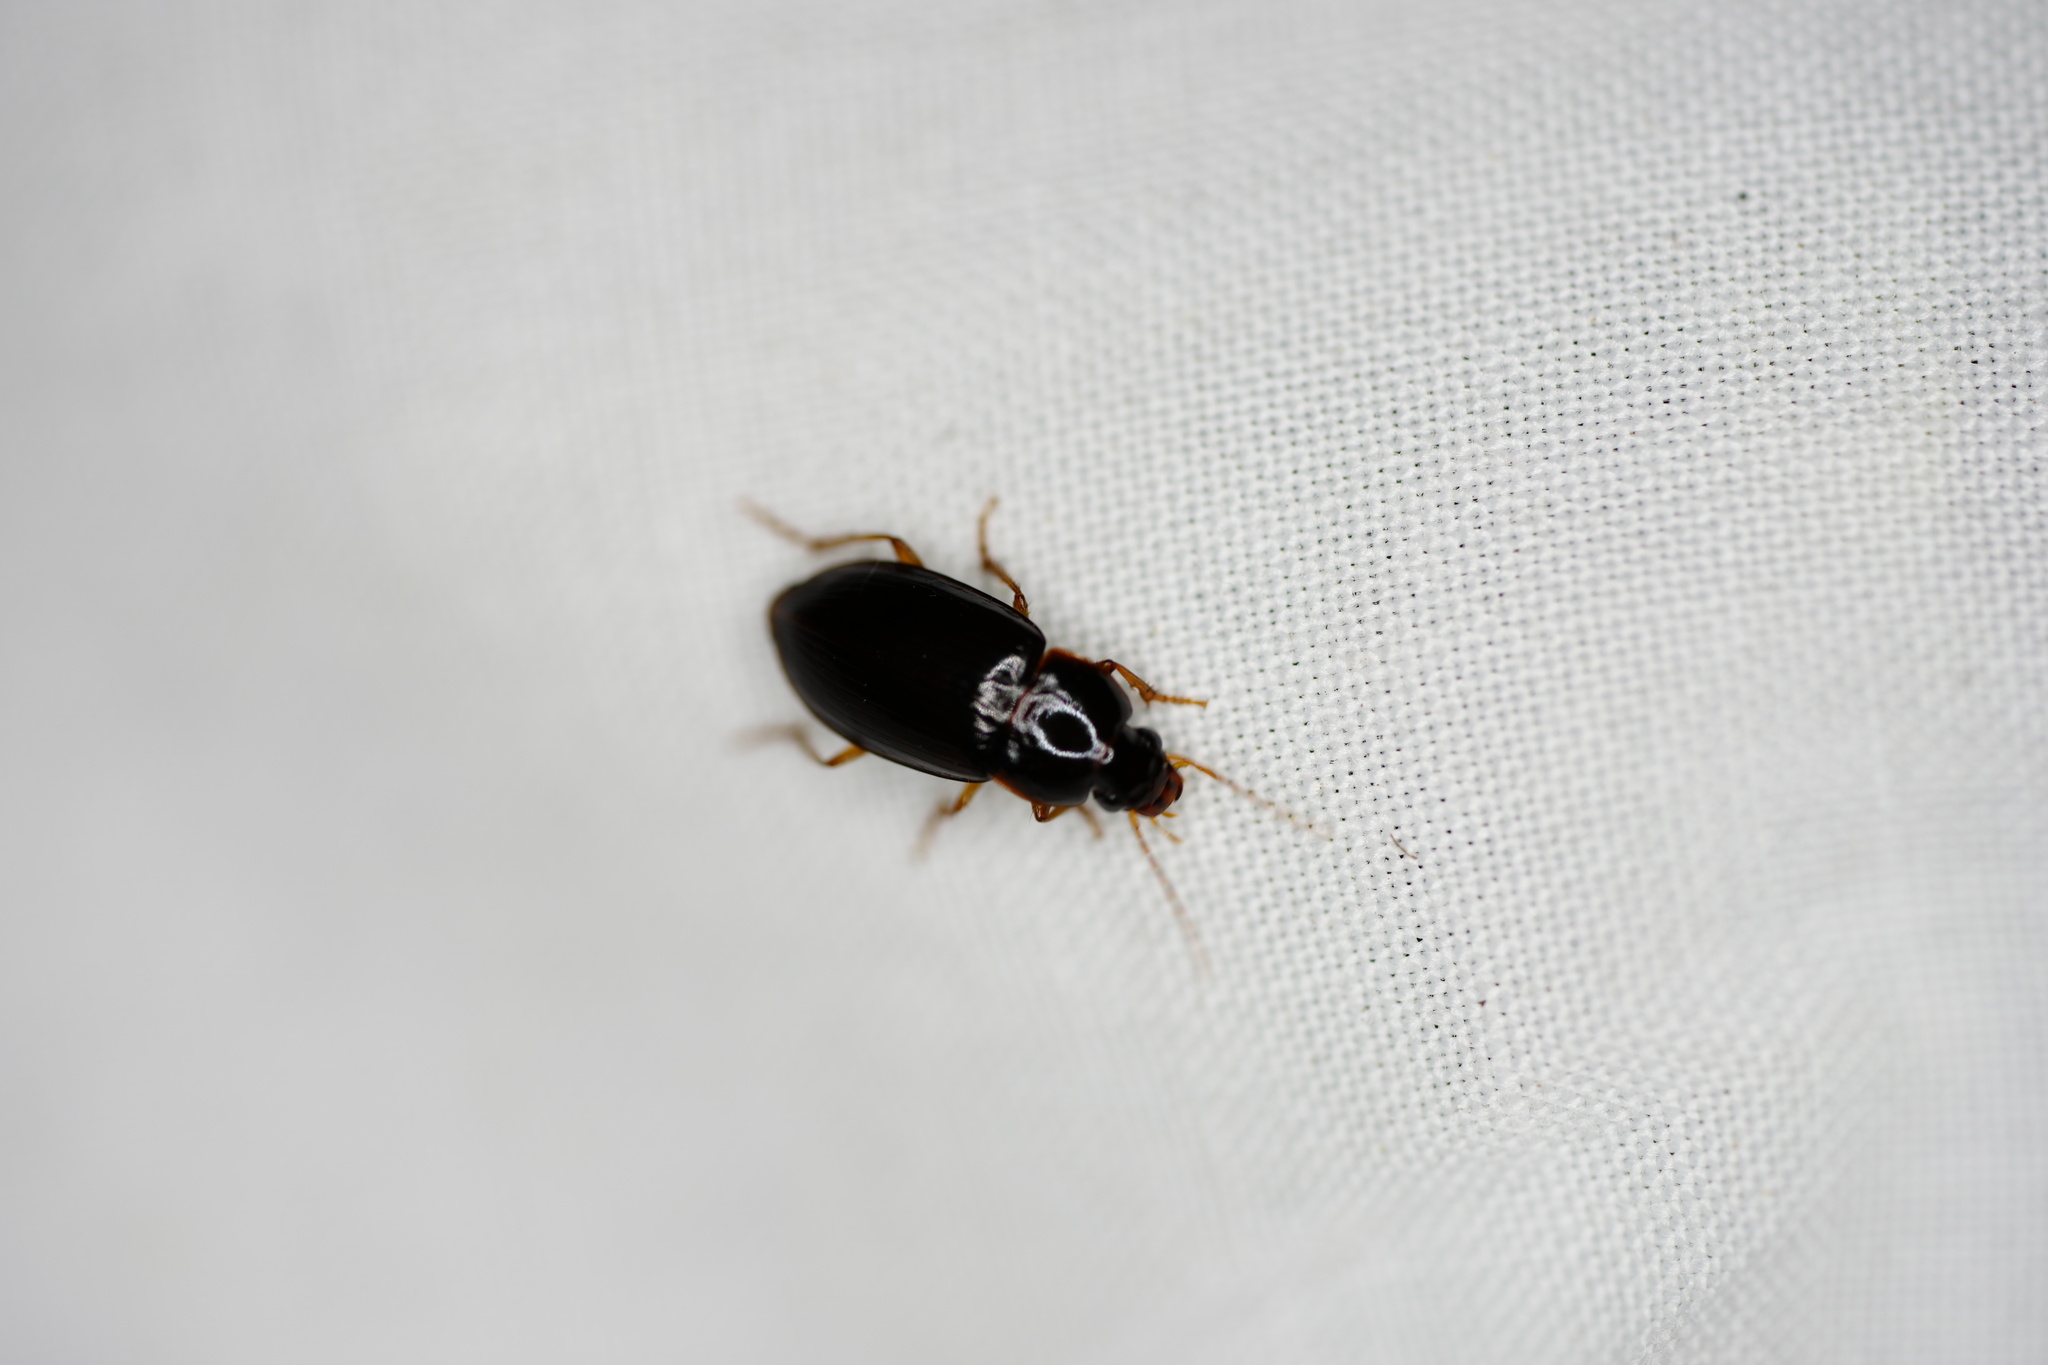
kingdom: Animalia
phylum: Arthropoda
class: Insecta
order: Coleoptera
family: Carabidae
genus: Notiobia
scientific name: Notiobia terminata
